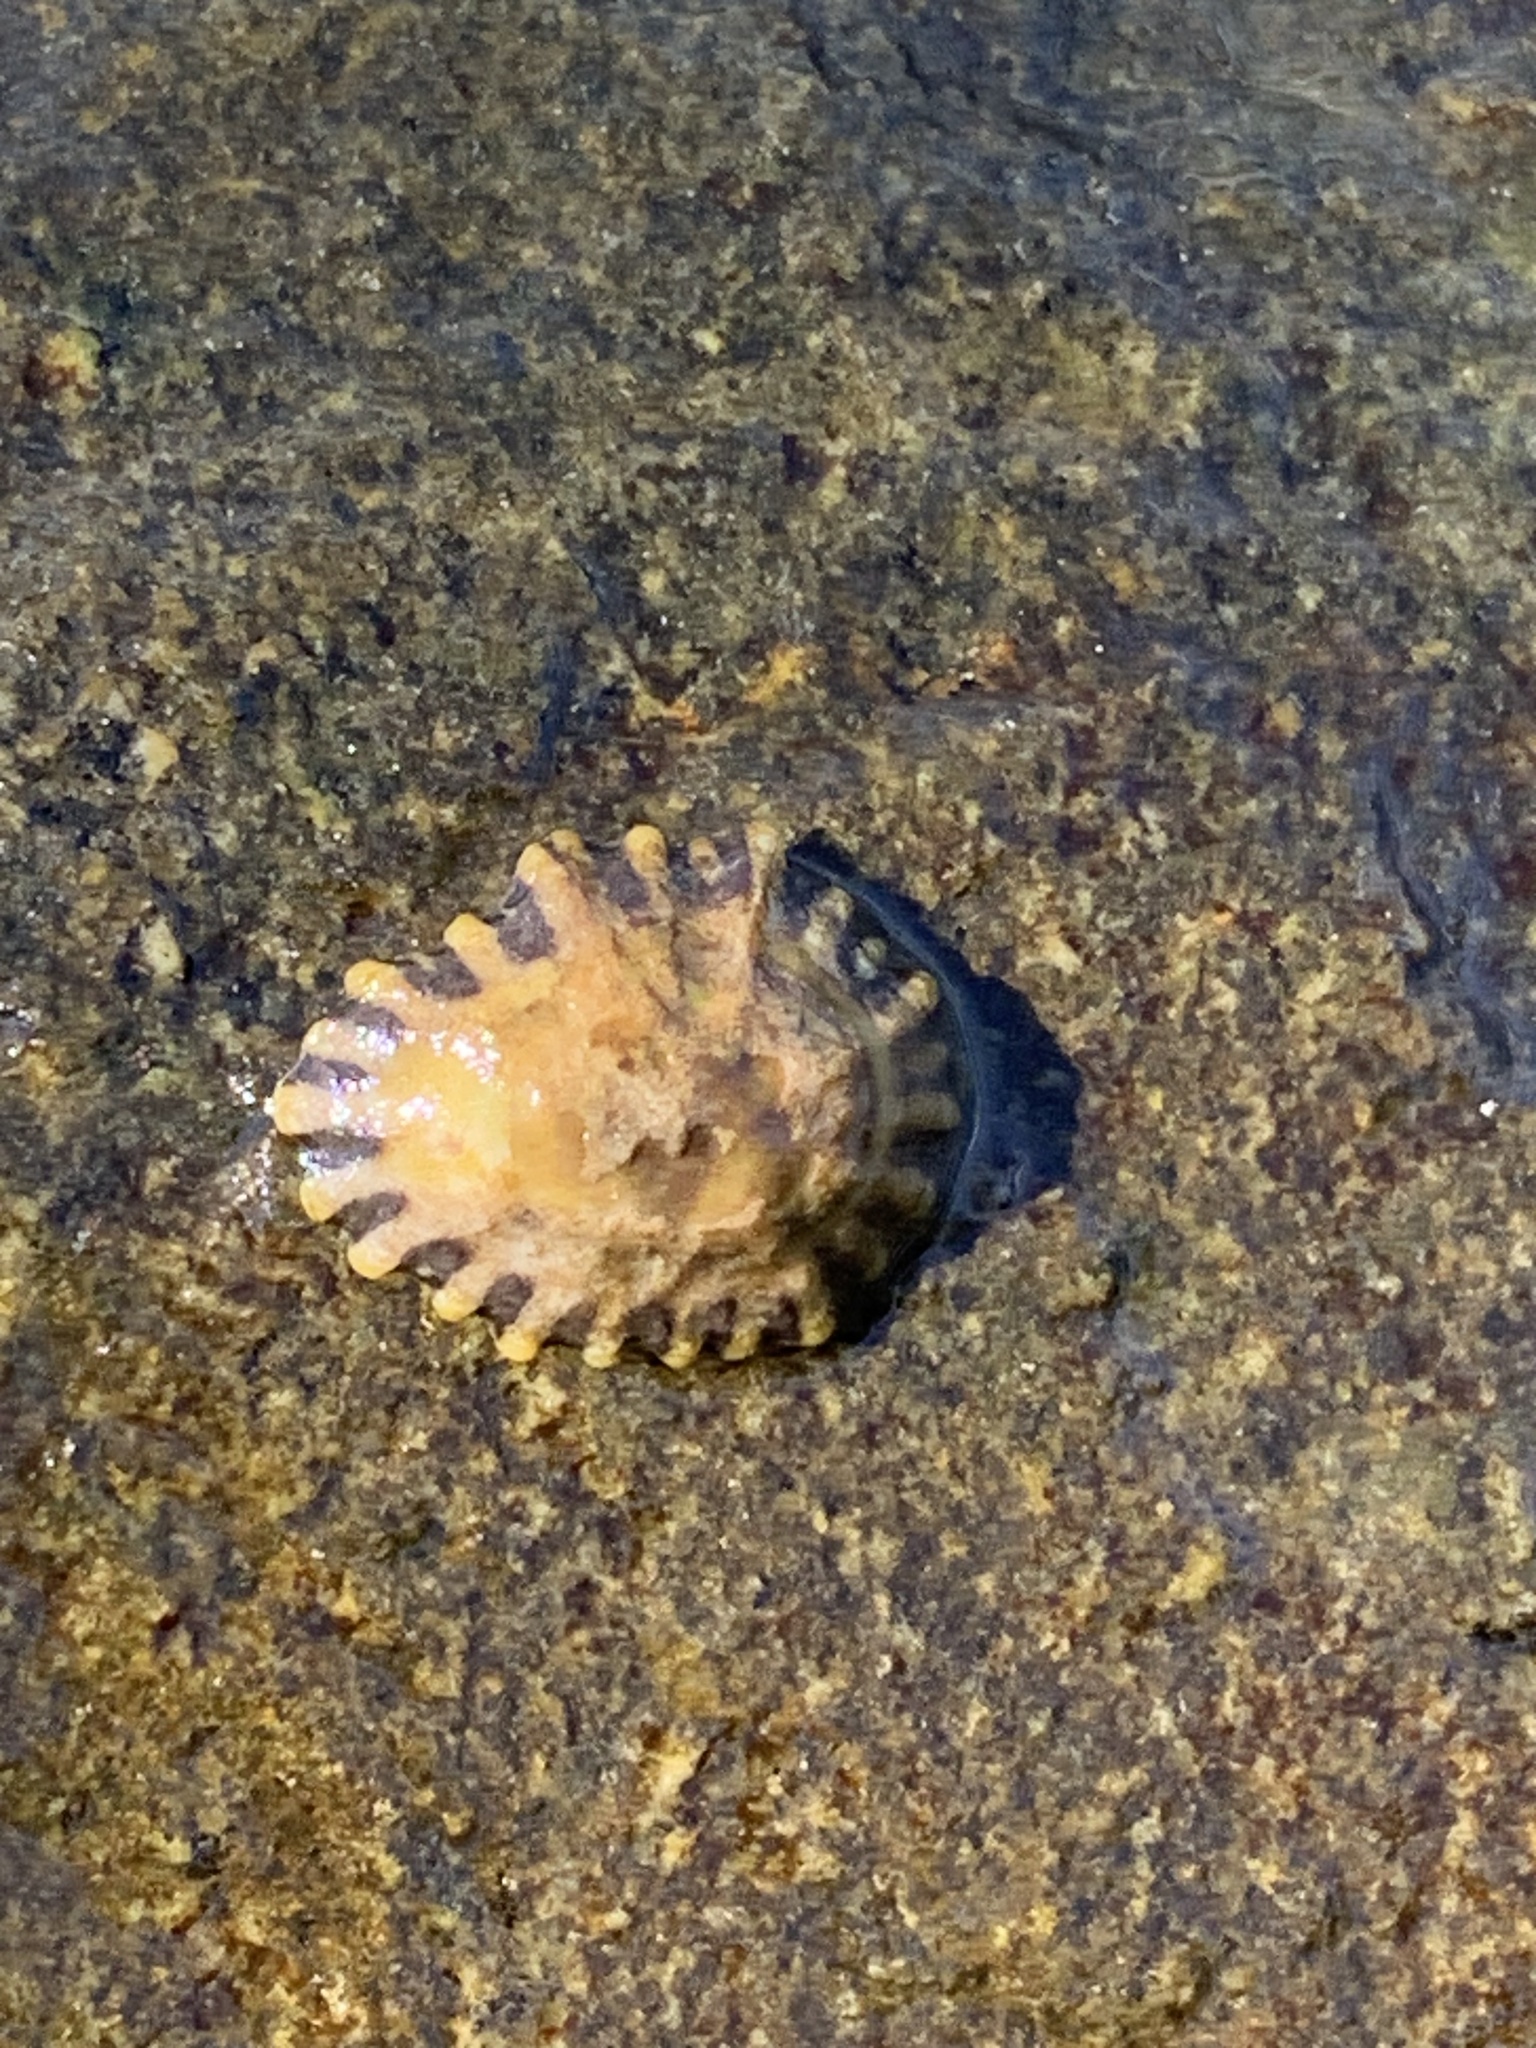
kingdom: Animalia
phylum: Mollusca
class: Gastropoda
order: Siphonariida
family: Siphonariidae
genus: Siphonaria
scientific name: Siphonaria diemenensis
